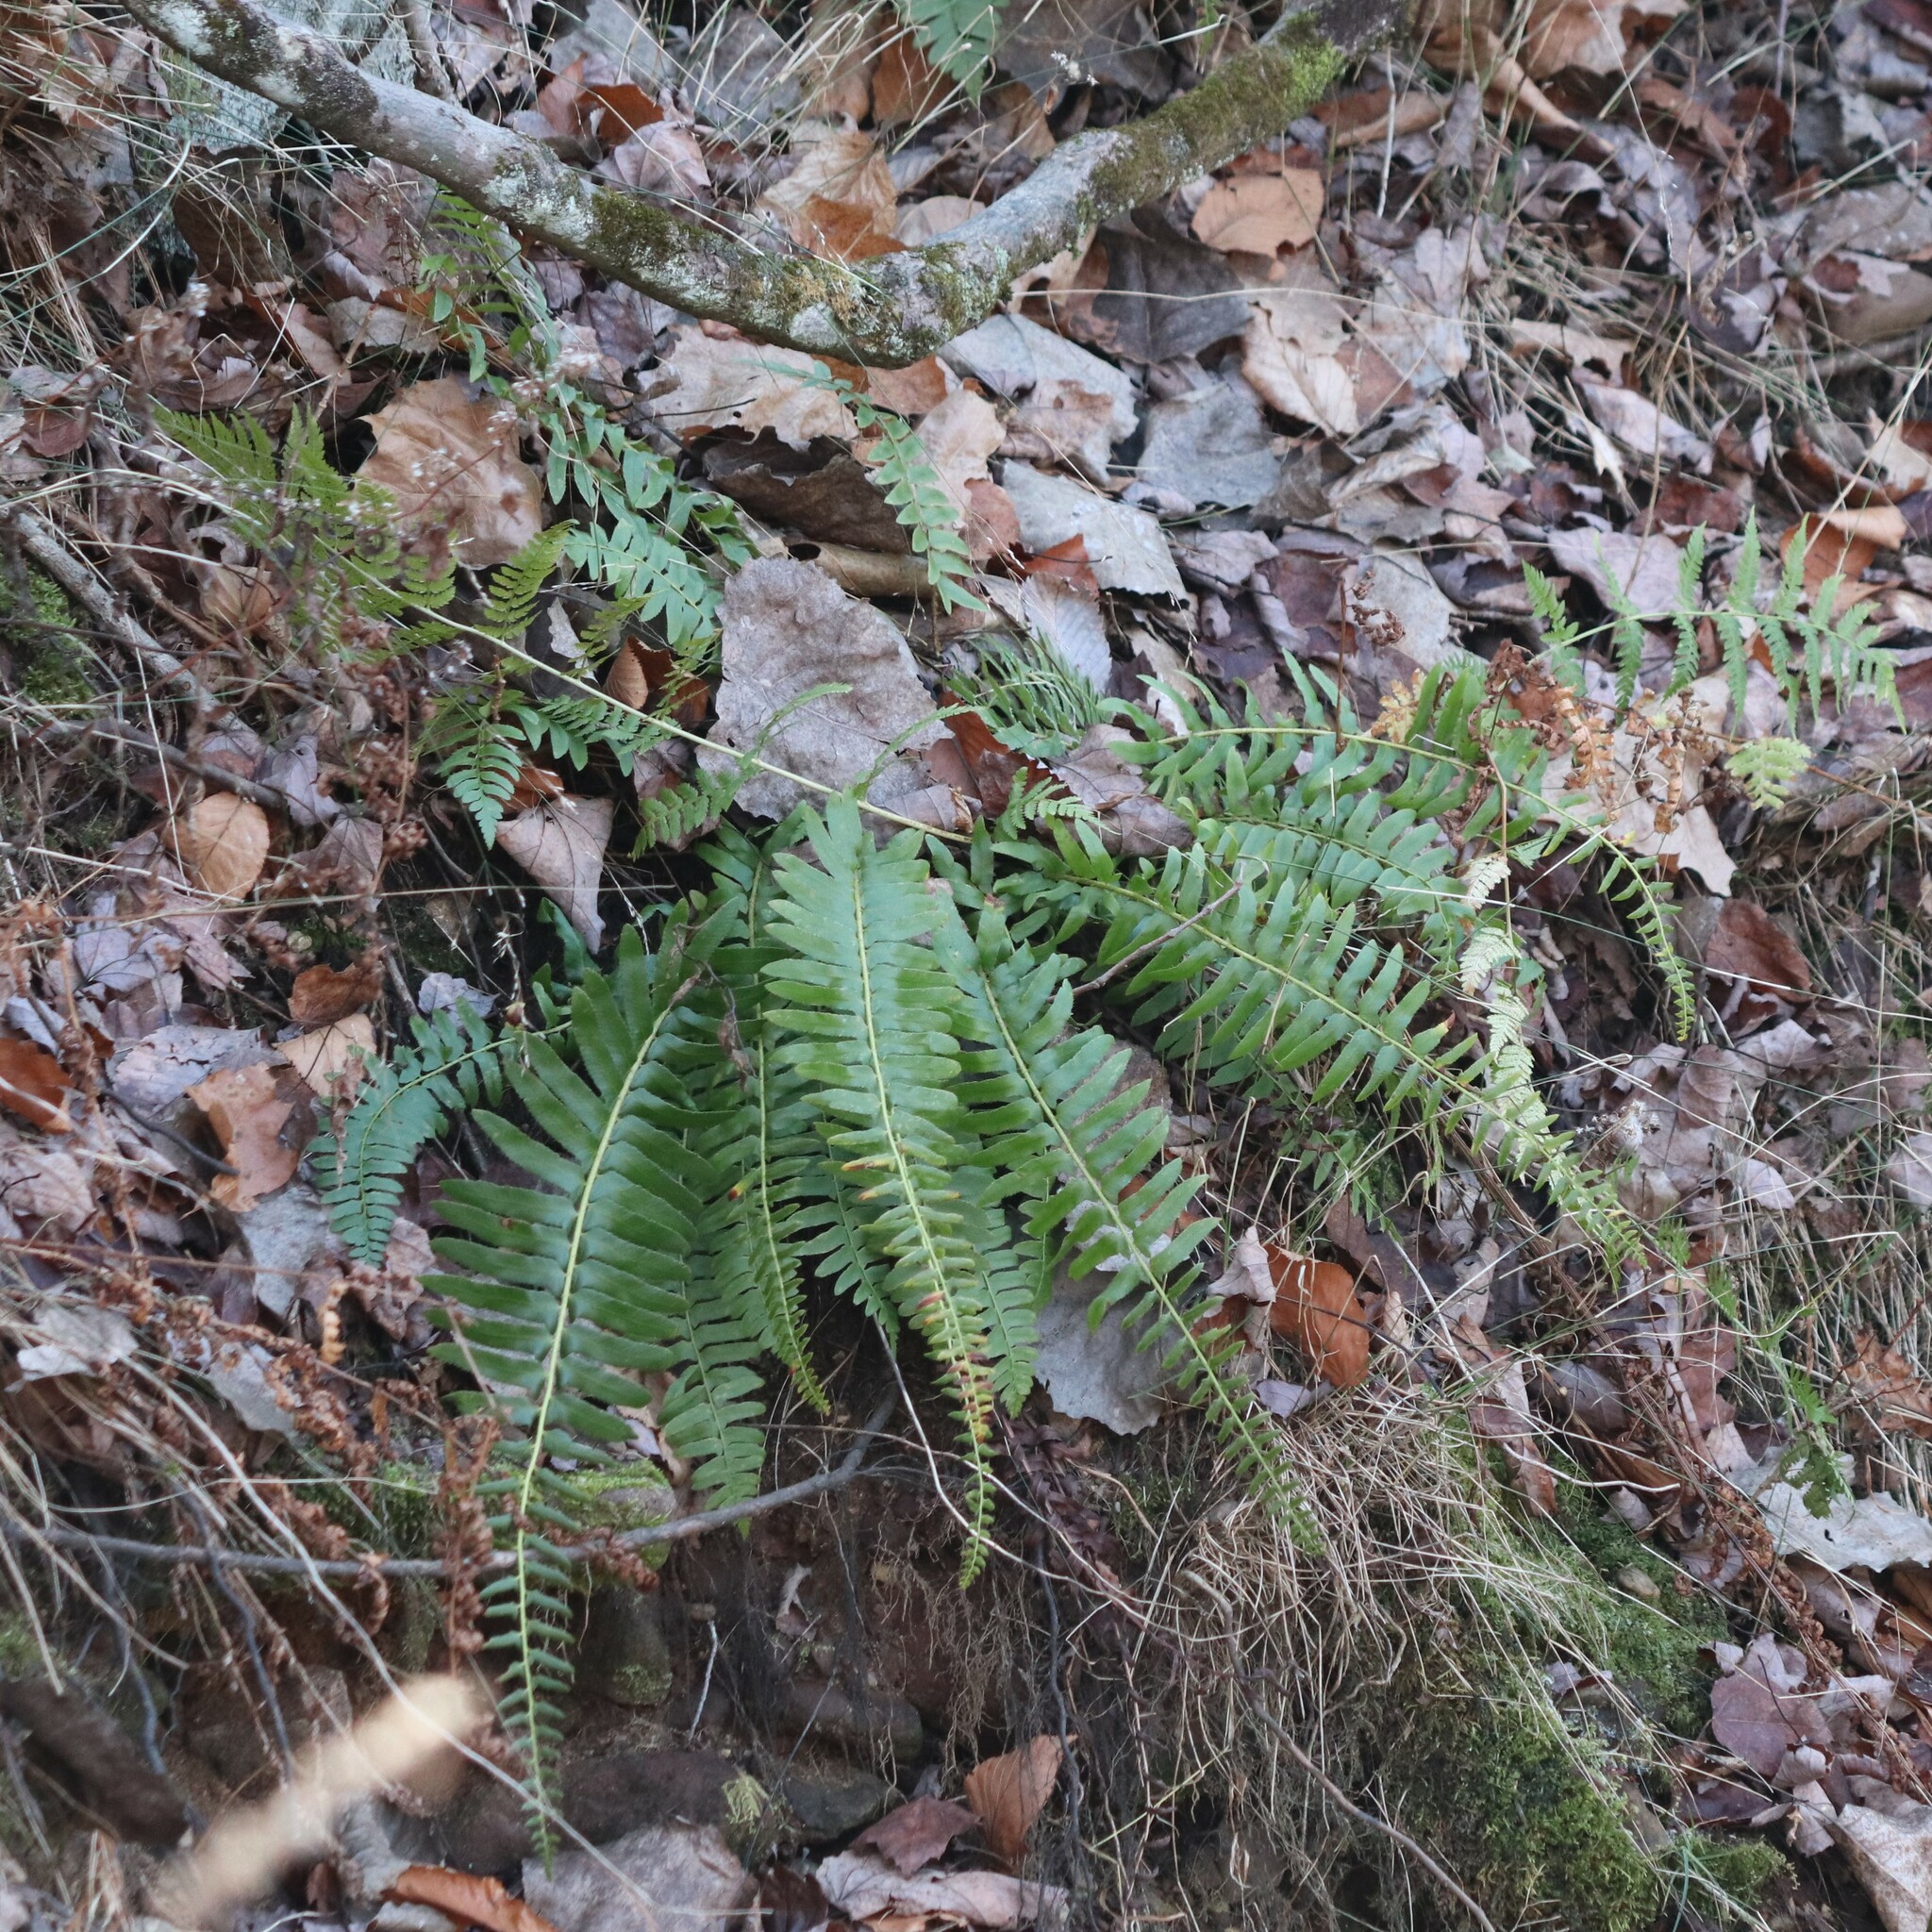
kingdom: Plantae
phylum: Tracheophyta
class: Polypodiopsida
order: Polypodiales
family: Dryopteridaceae
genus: Polystichum
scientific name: Polystichum acrostichoides
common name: Christmas fern
